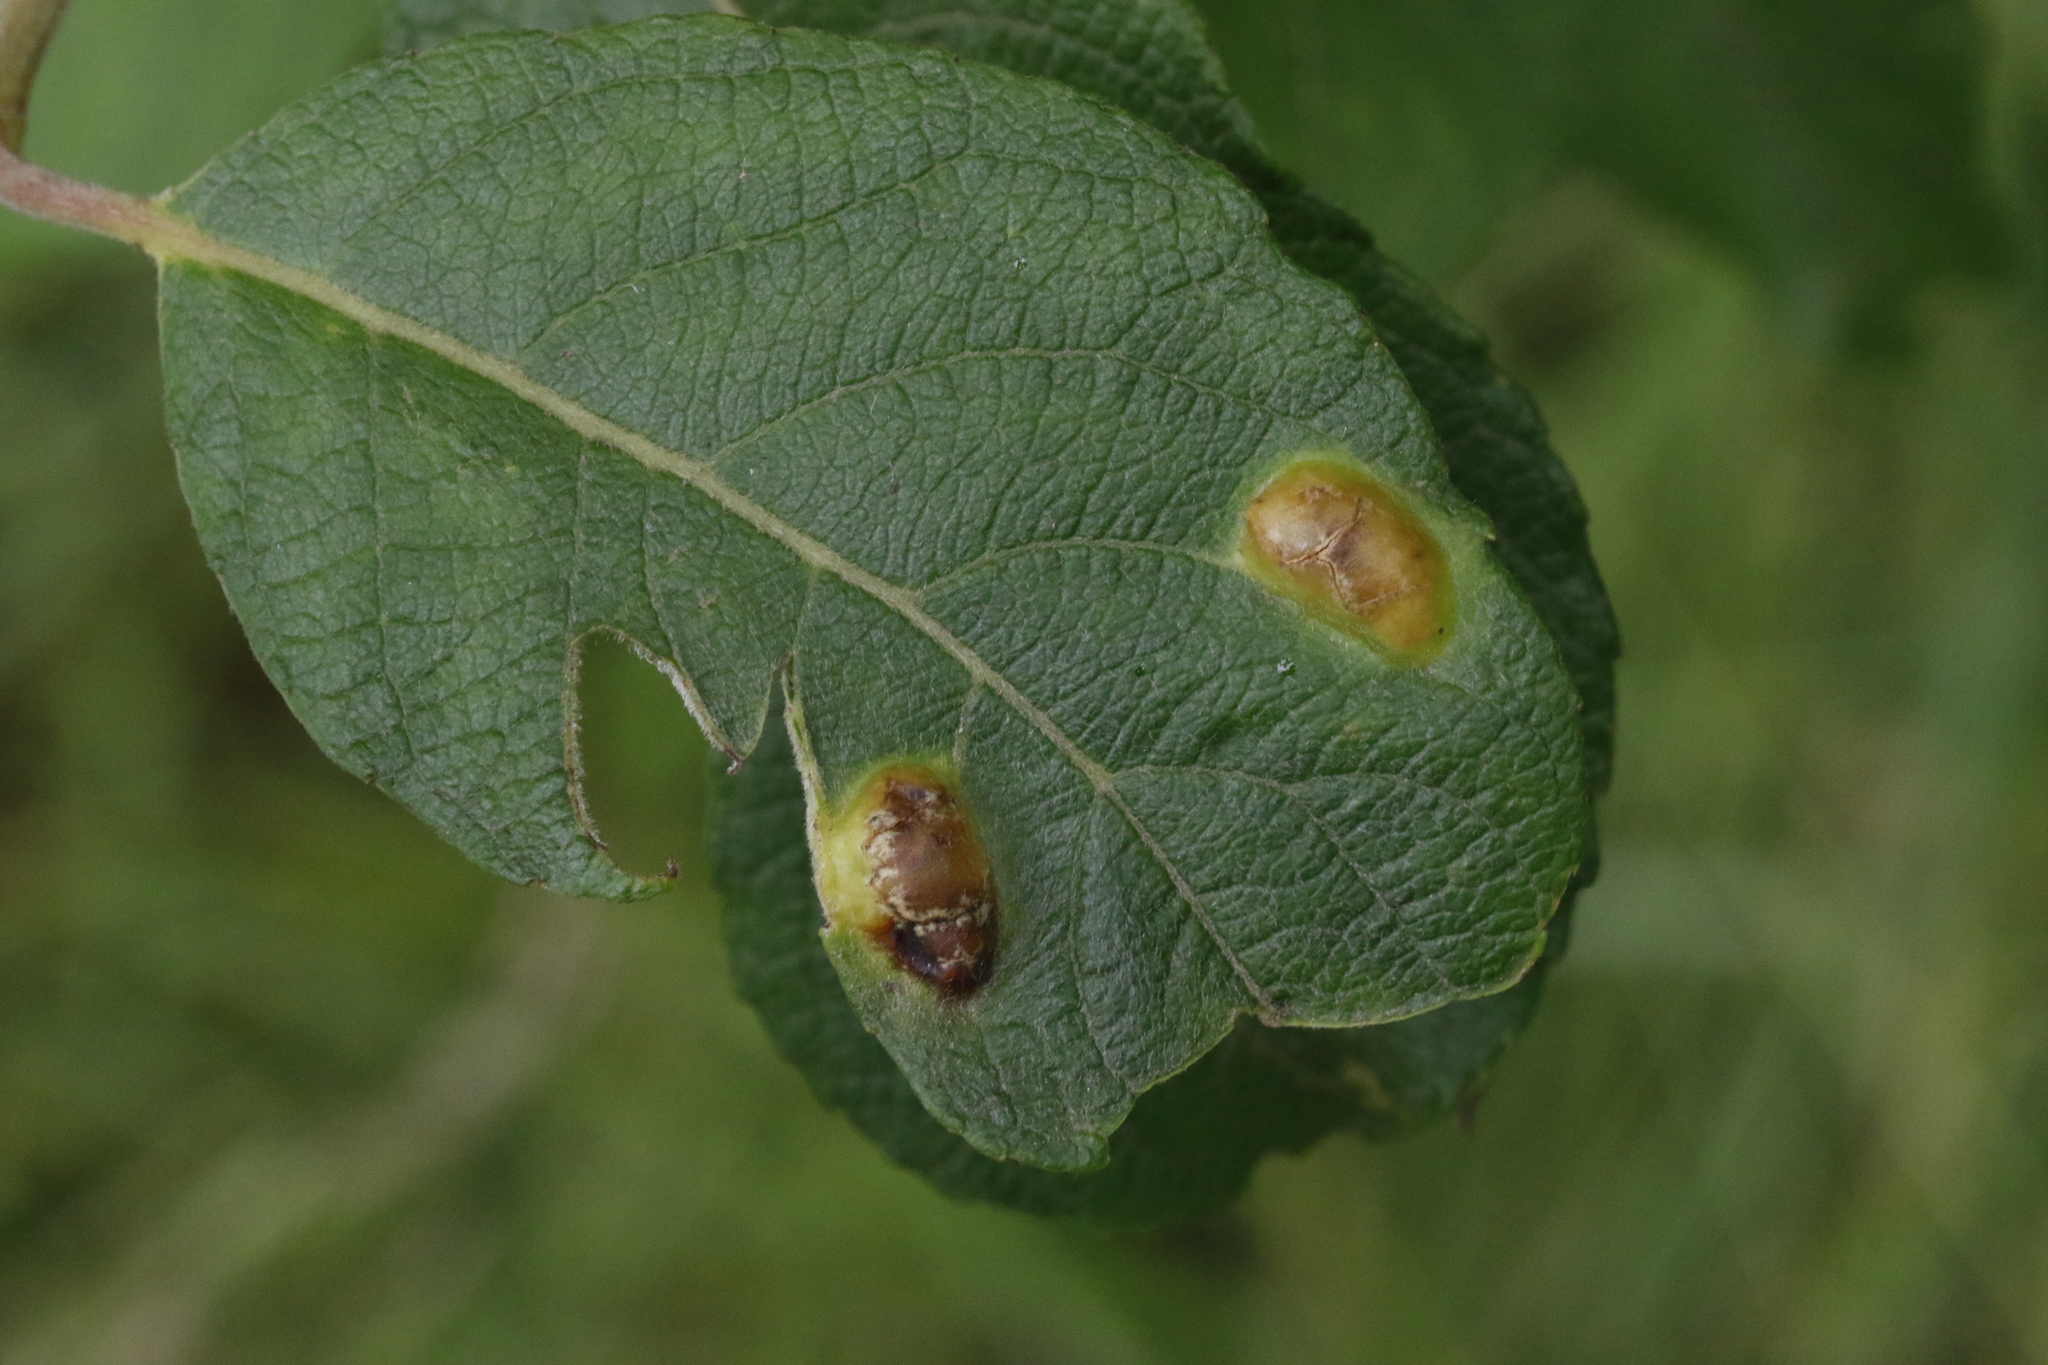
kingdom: Animalia
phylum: Arthropoda
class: Insecta
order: Diptera
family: Cecidomyiidae
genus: Iteomyia
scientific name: Iteomyia major
